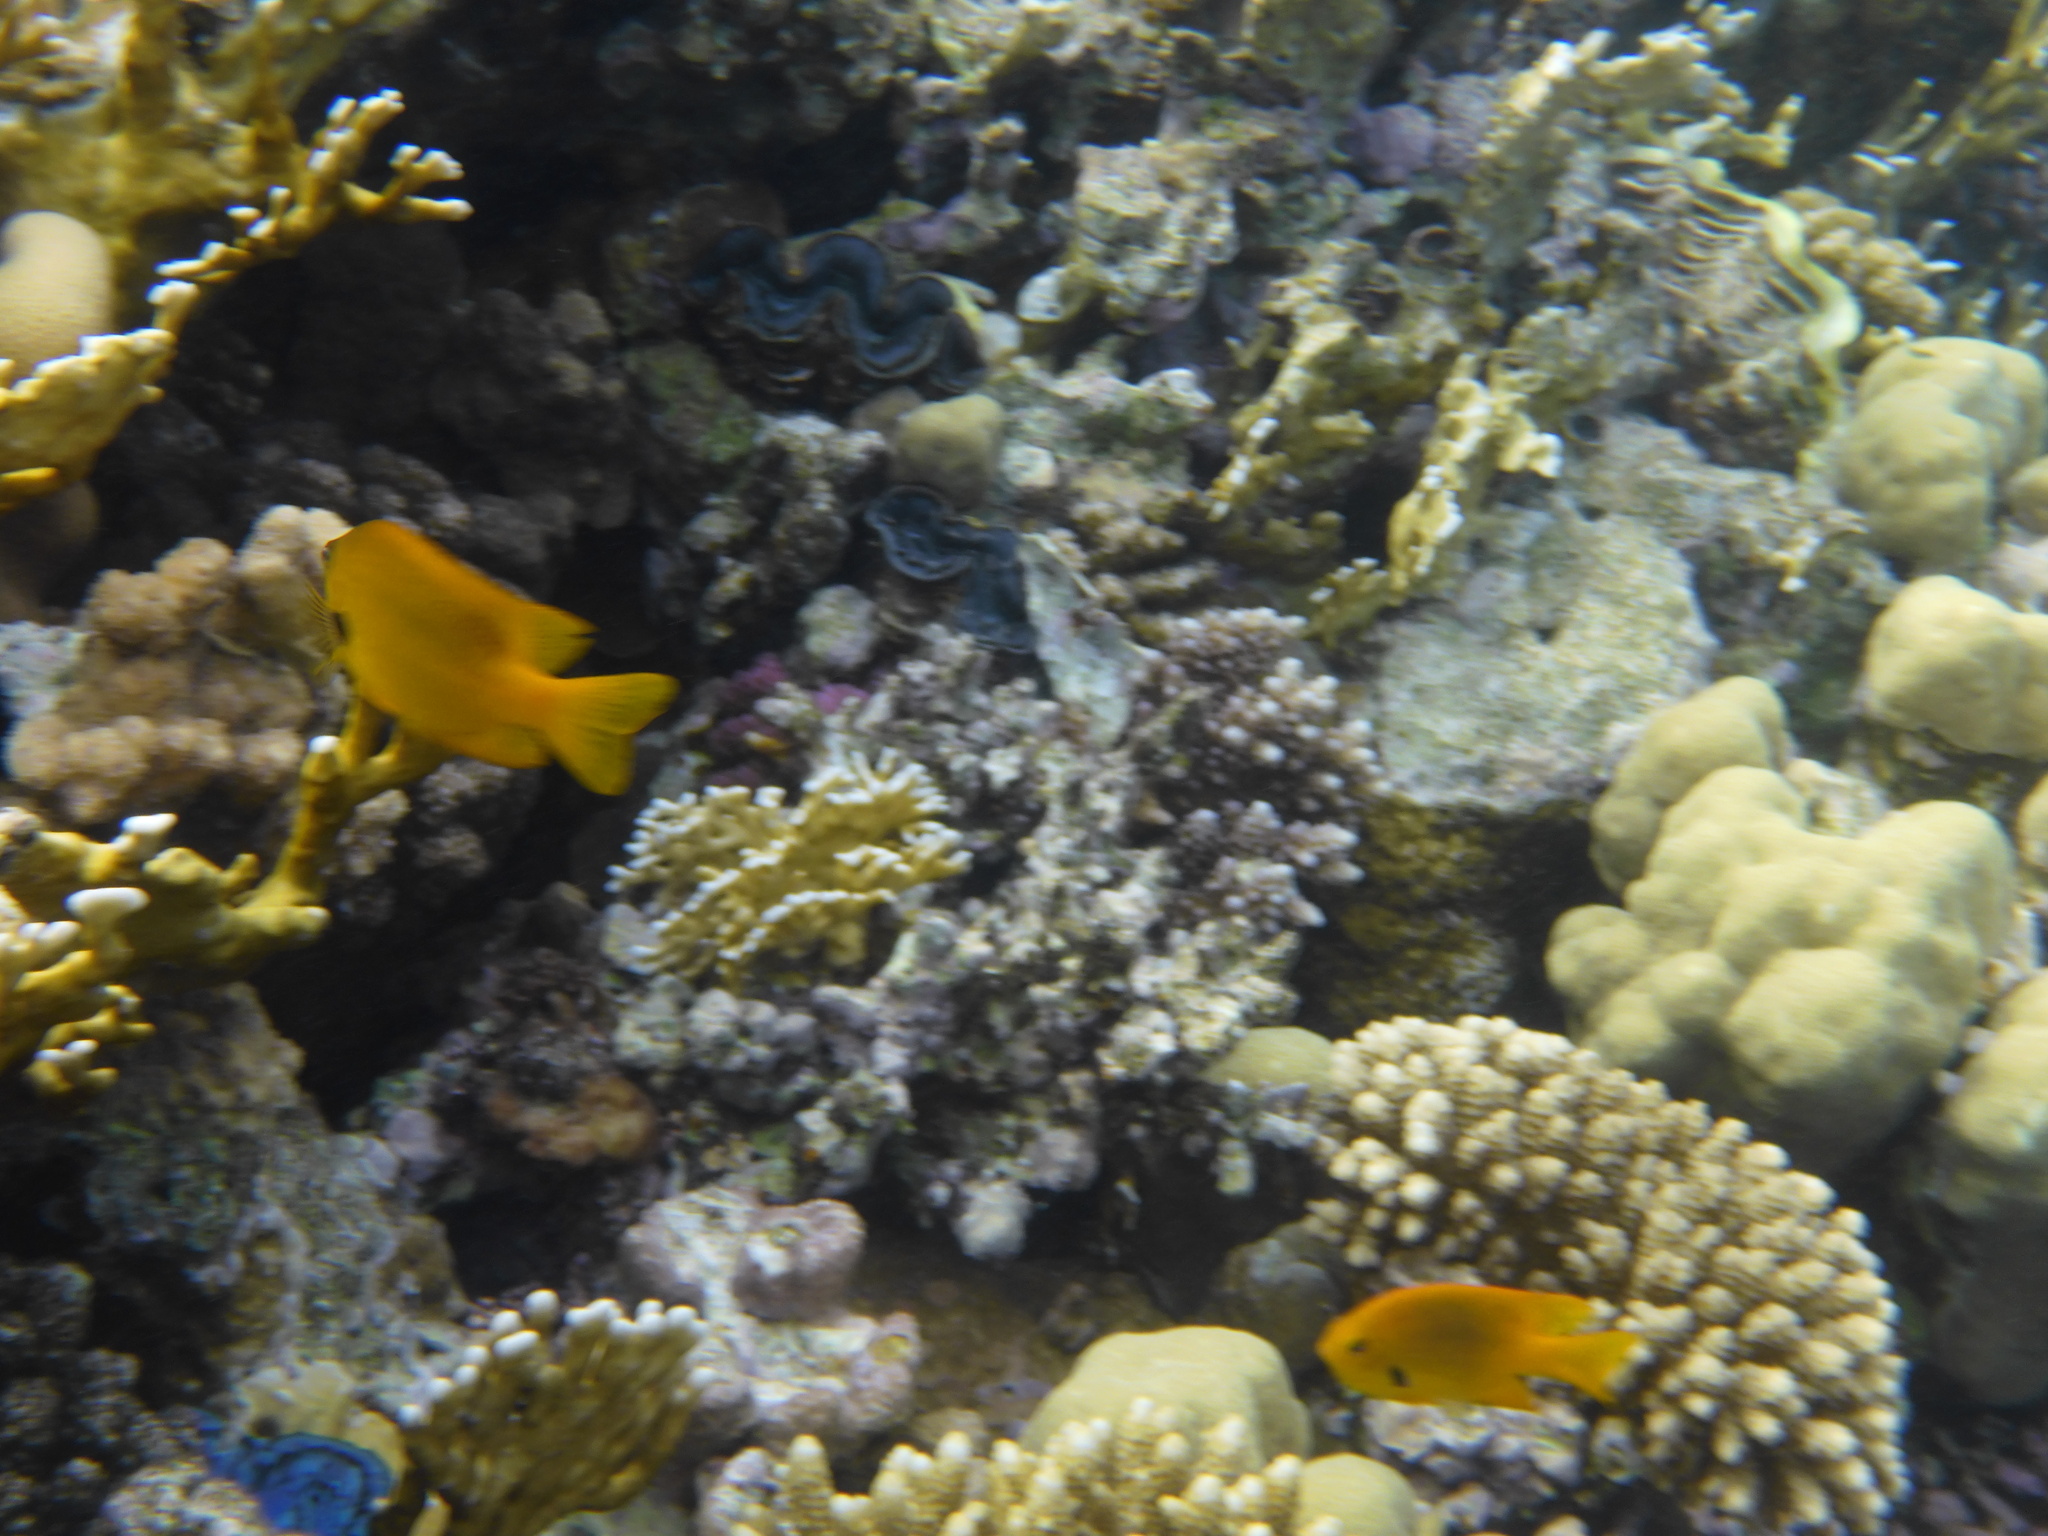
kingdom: Animalia
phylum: Chordata
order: Perciformes
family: Pomacentridae
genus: Pomacentrus
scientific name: Pomacentrus sulfureus
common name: Sulfur damsel
